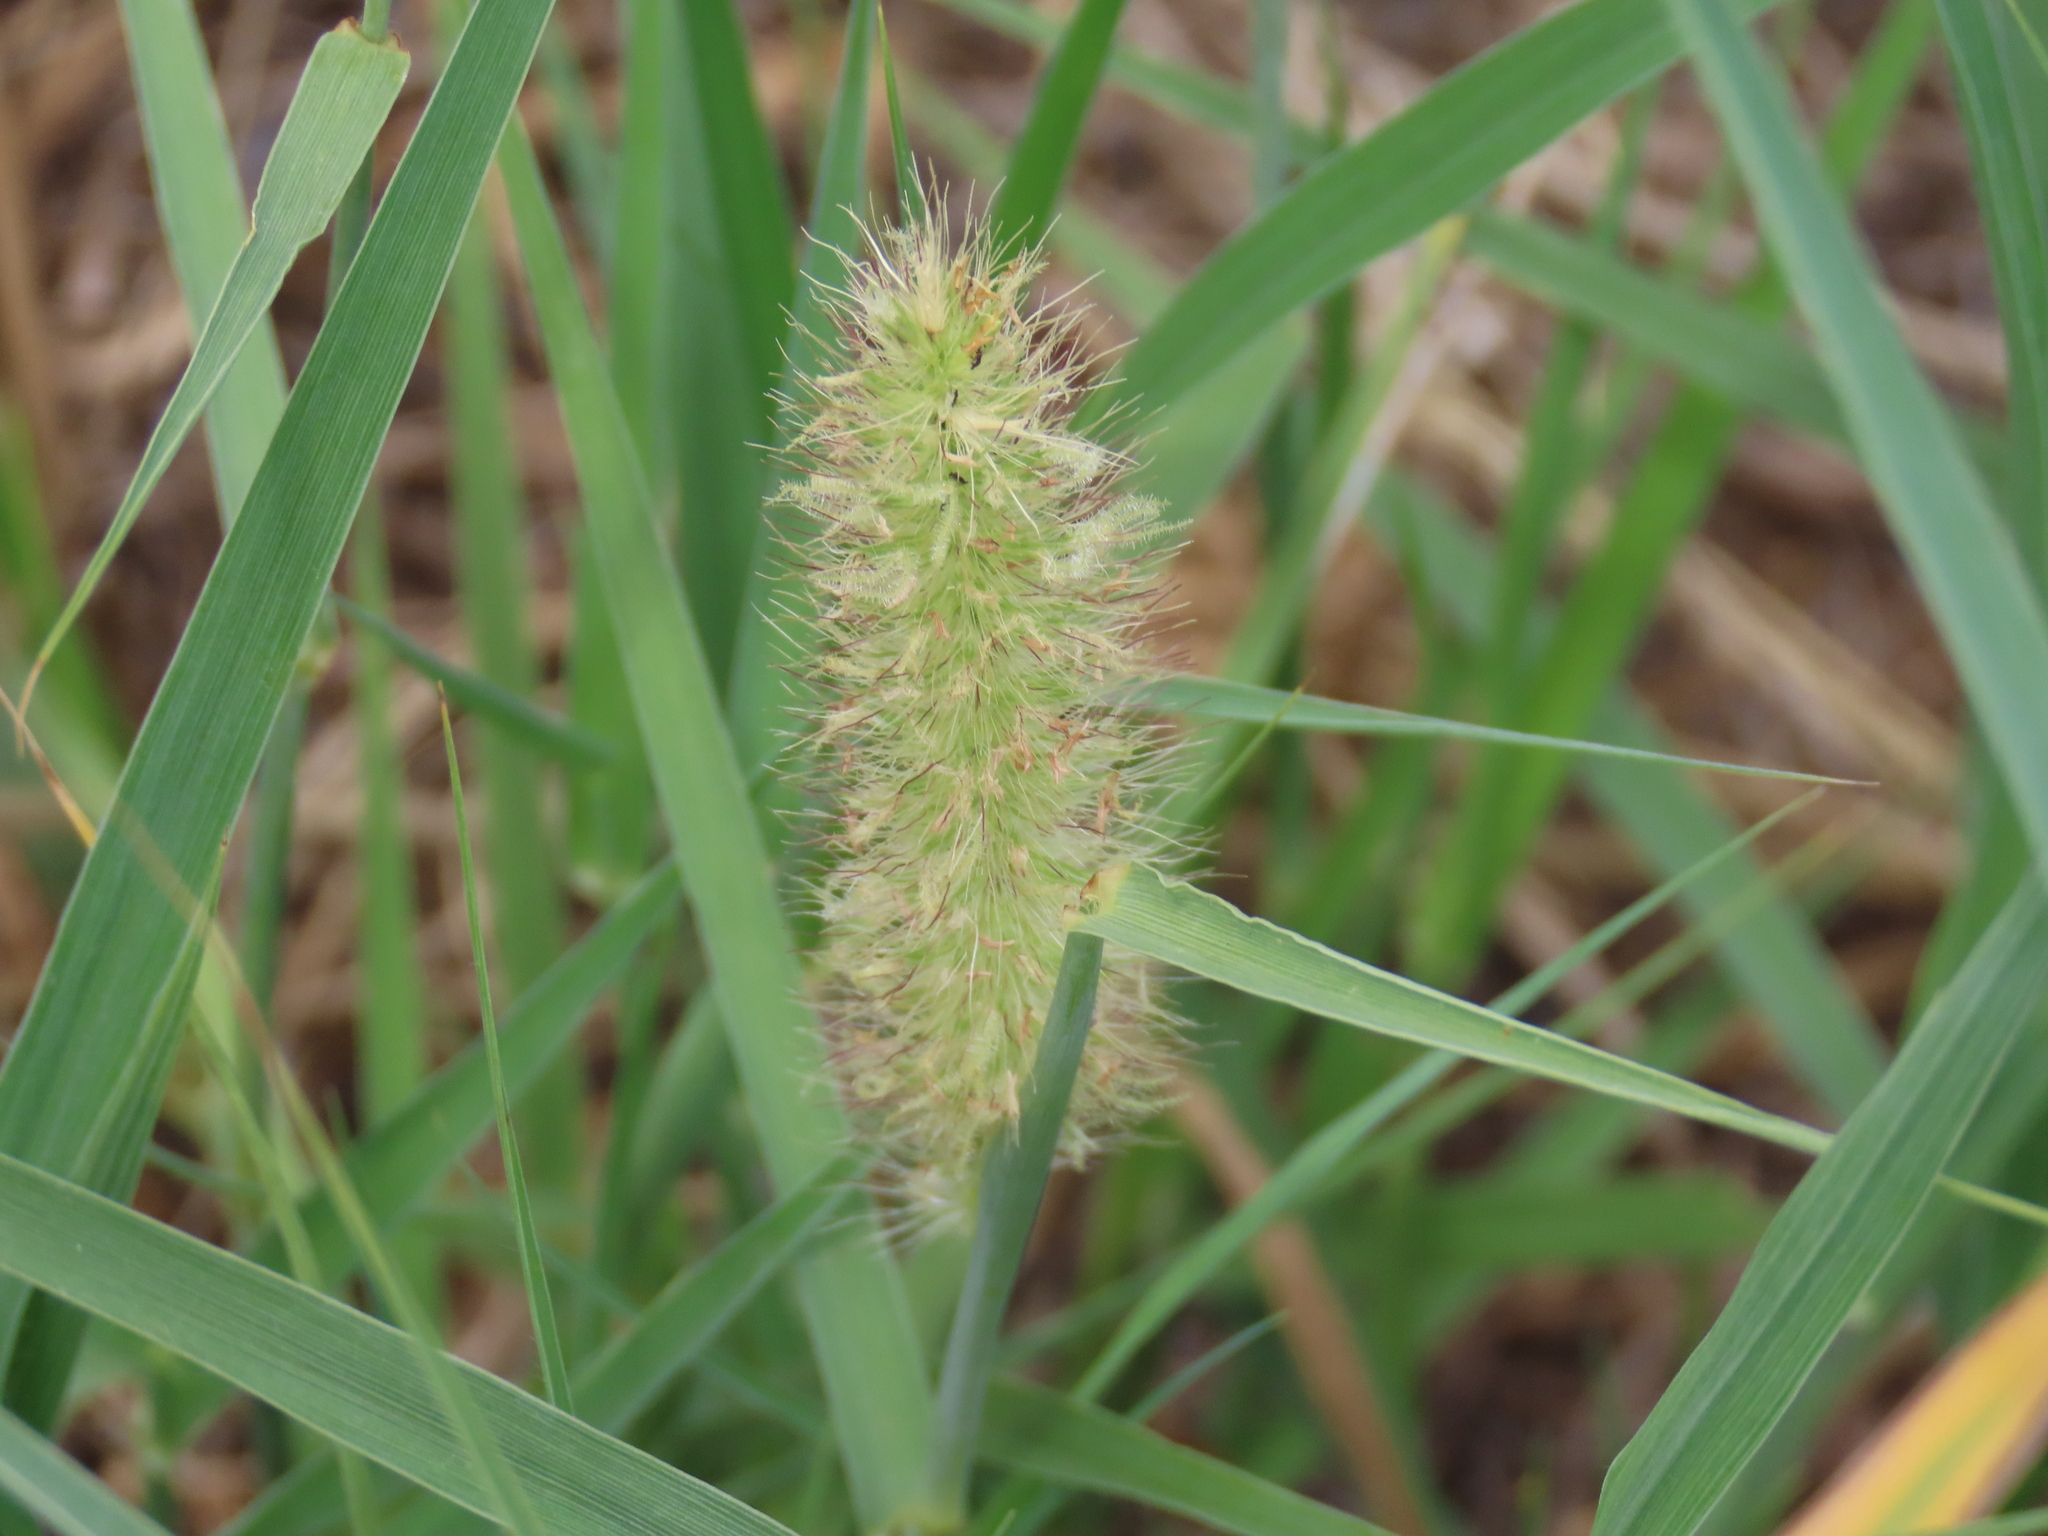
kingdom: Plantae
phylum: Tracheophyta
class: Liliopsida
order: Poales
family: Poaceae
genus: Cenchrus
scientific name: Cenchrus ciliaris
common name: Buffelgrass
